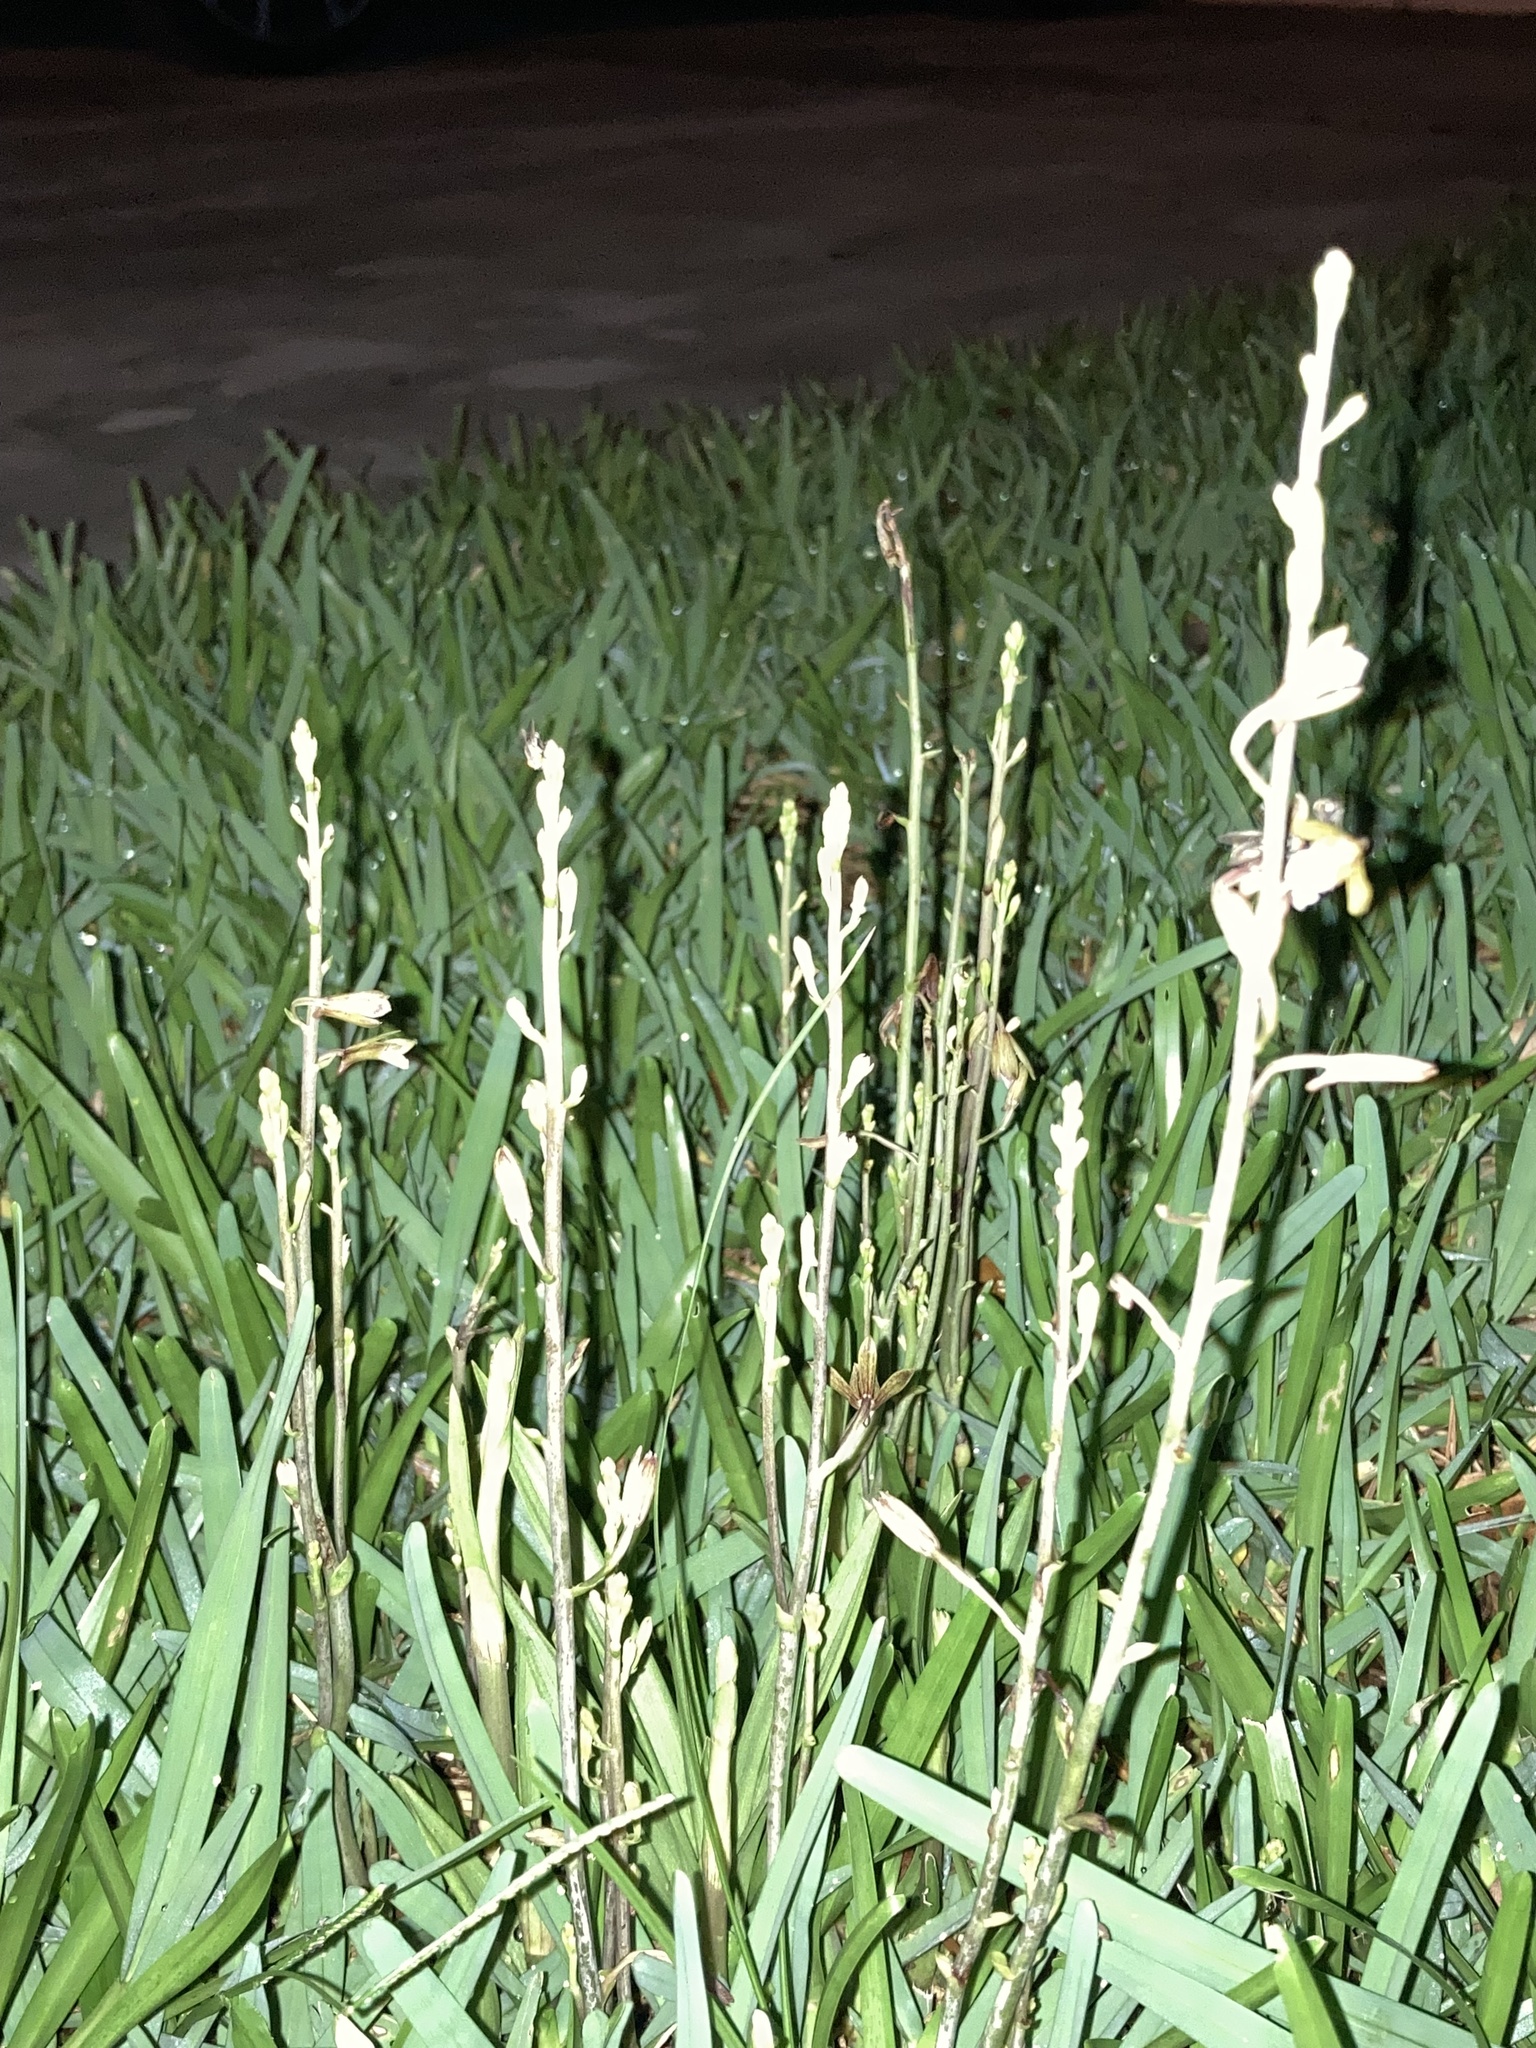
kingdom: Plantae
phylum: Tracheophyta
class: Liliopsida
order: Asparagales
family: Orchidaceae
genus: Eulophia
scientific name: Eulophia graminea
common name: Orchid
